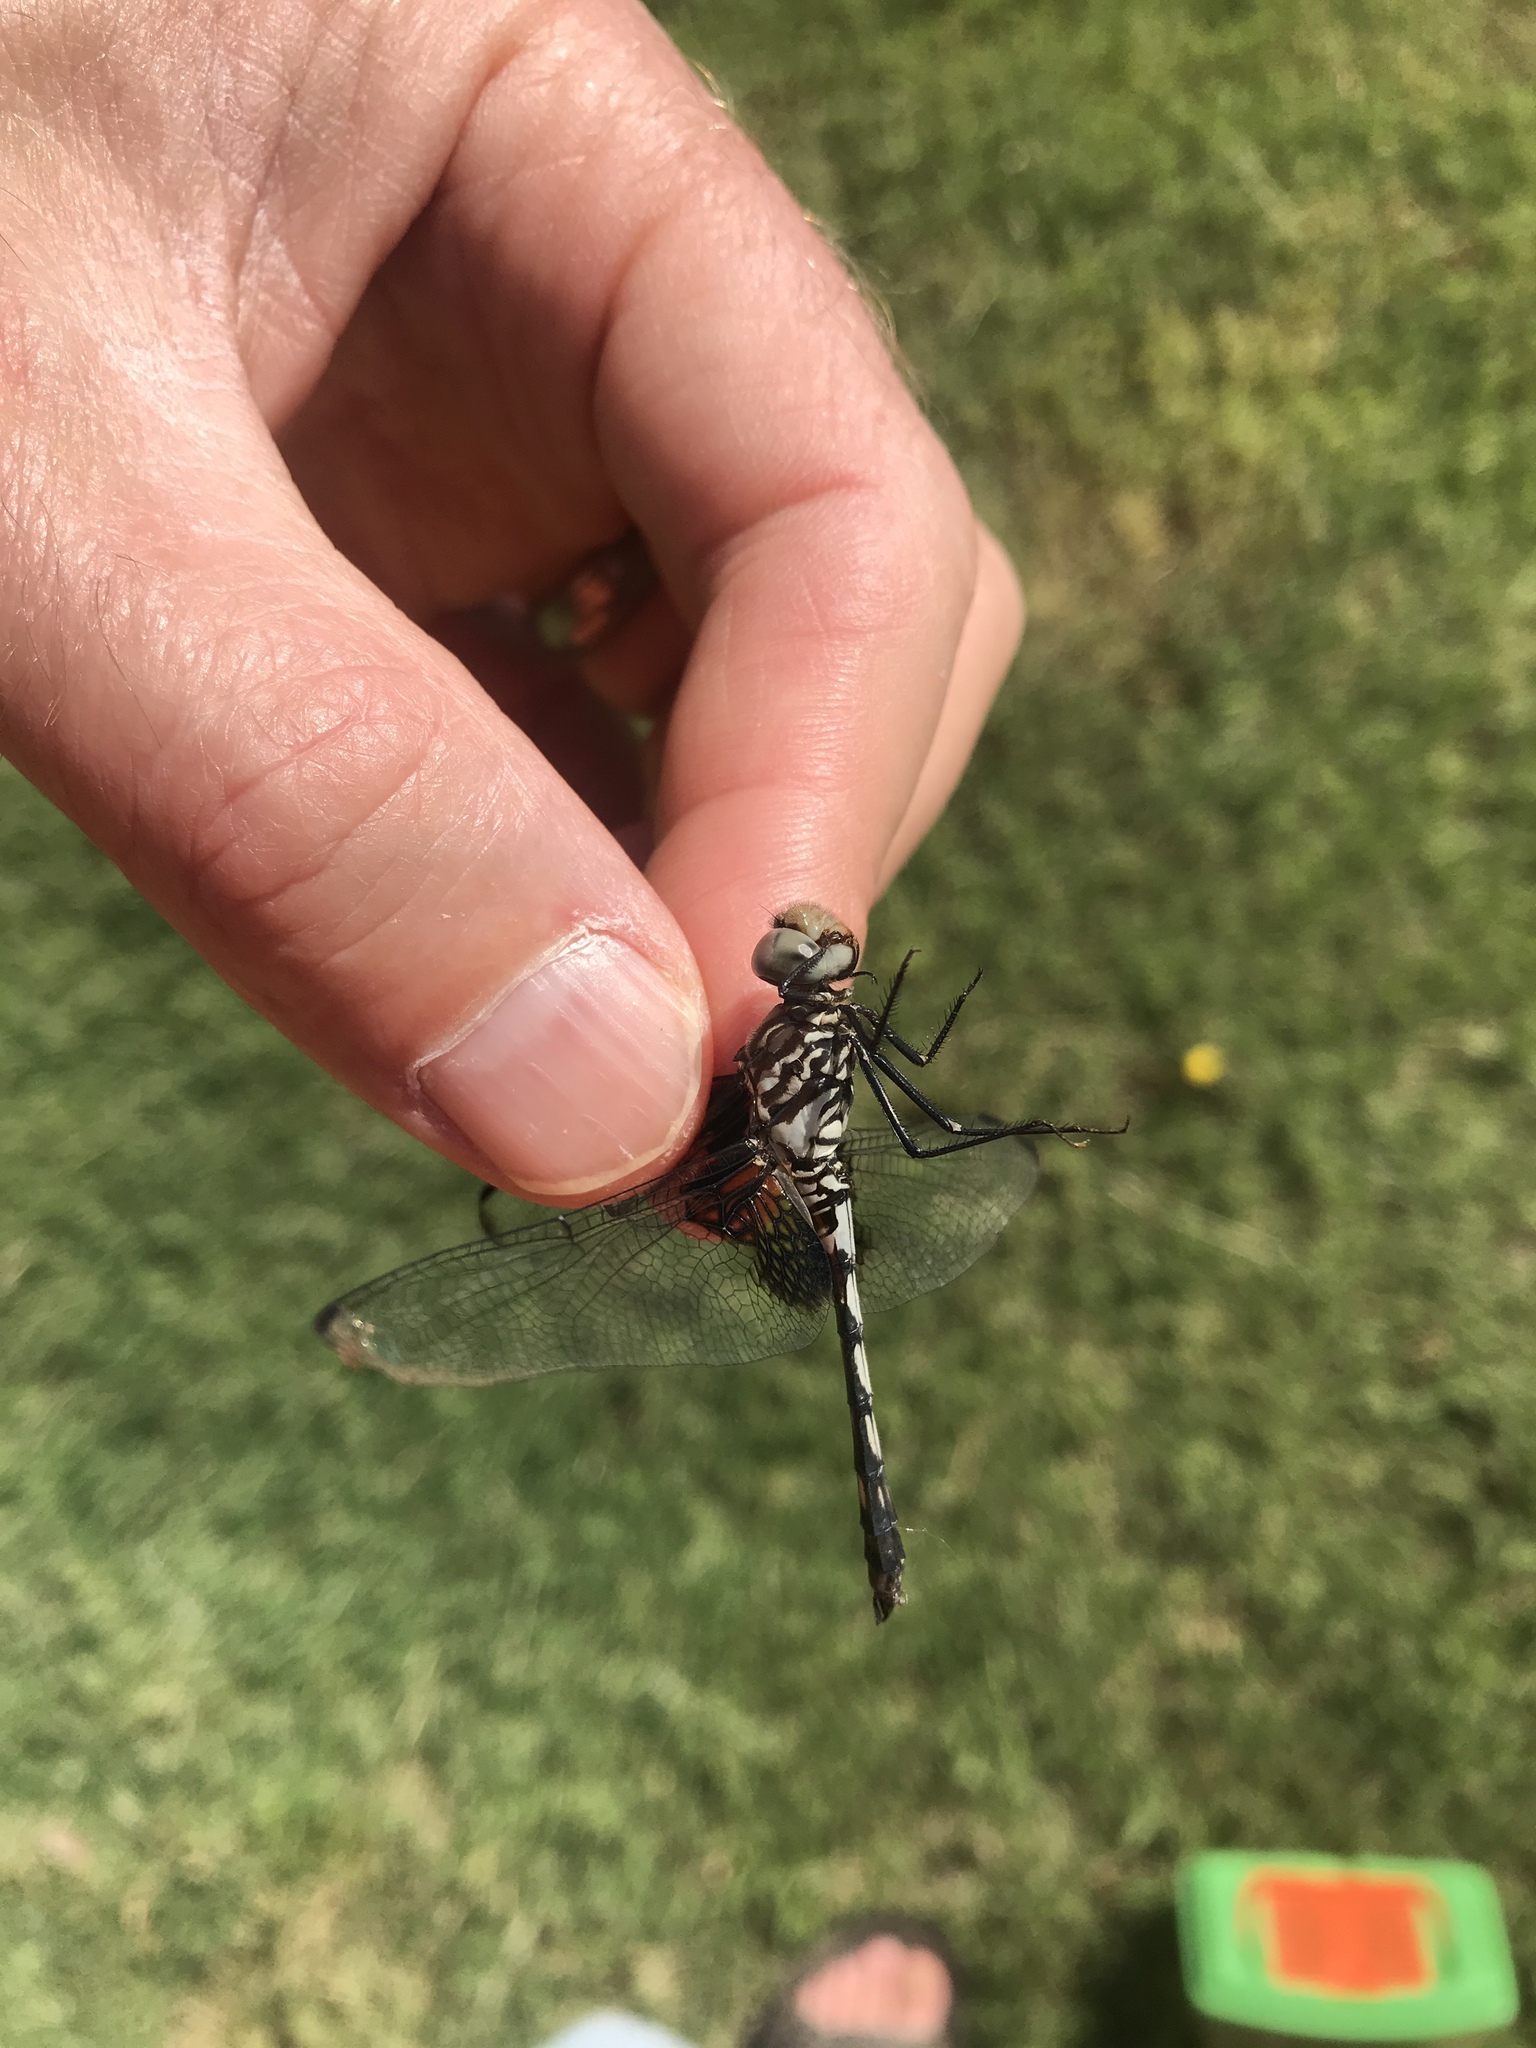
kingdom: Animalia
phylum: Arthropoda
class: Insecta
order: Odonata
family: Libellulidae
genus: Dythemis
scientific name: Dythemis fugax
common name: Checkered setwing
